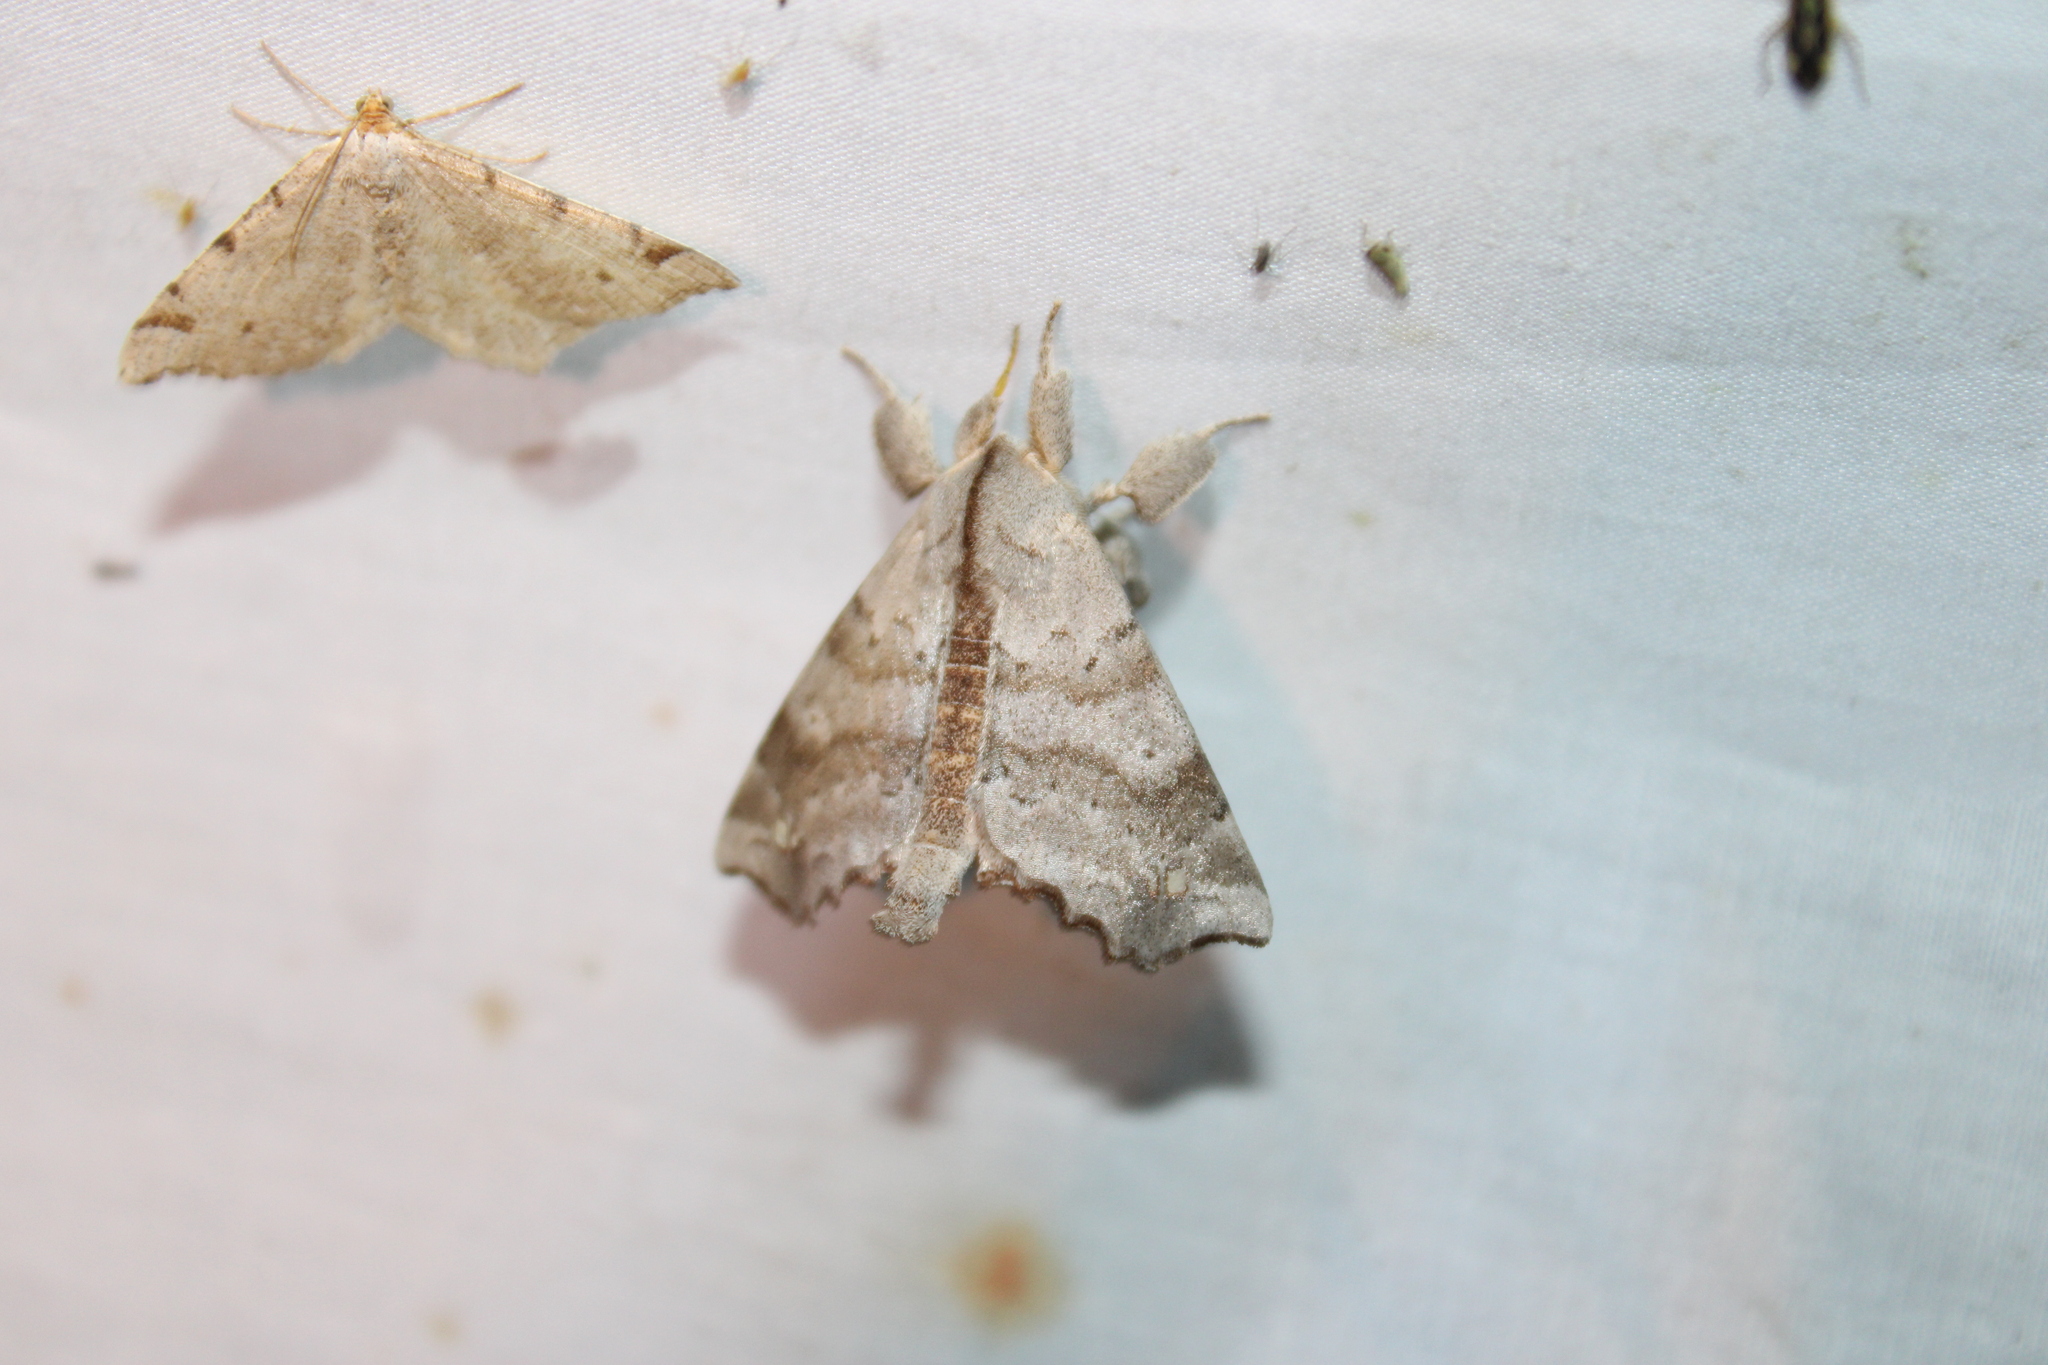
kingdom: Animalia
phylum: Arthropoda
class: Insecta
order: Lepidoptera
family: Apatelodidae
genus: Olceclostera
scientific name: Olceclostera angelica
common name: Angel moth
